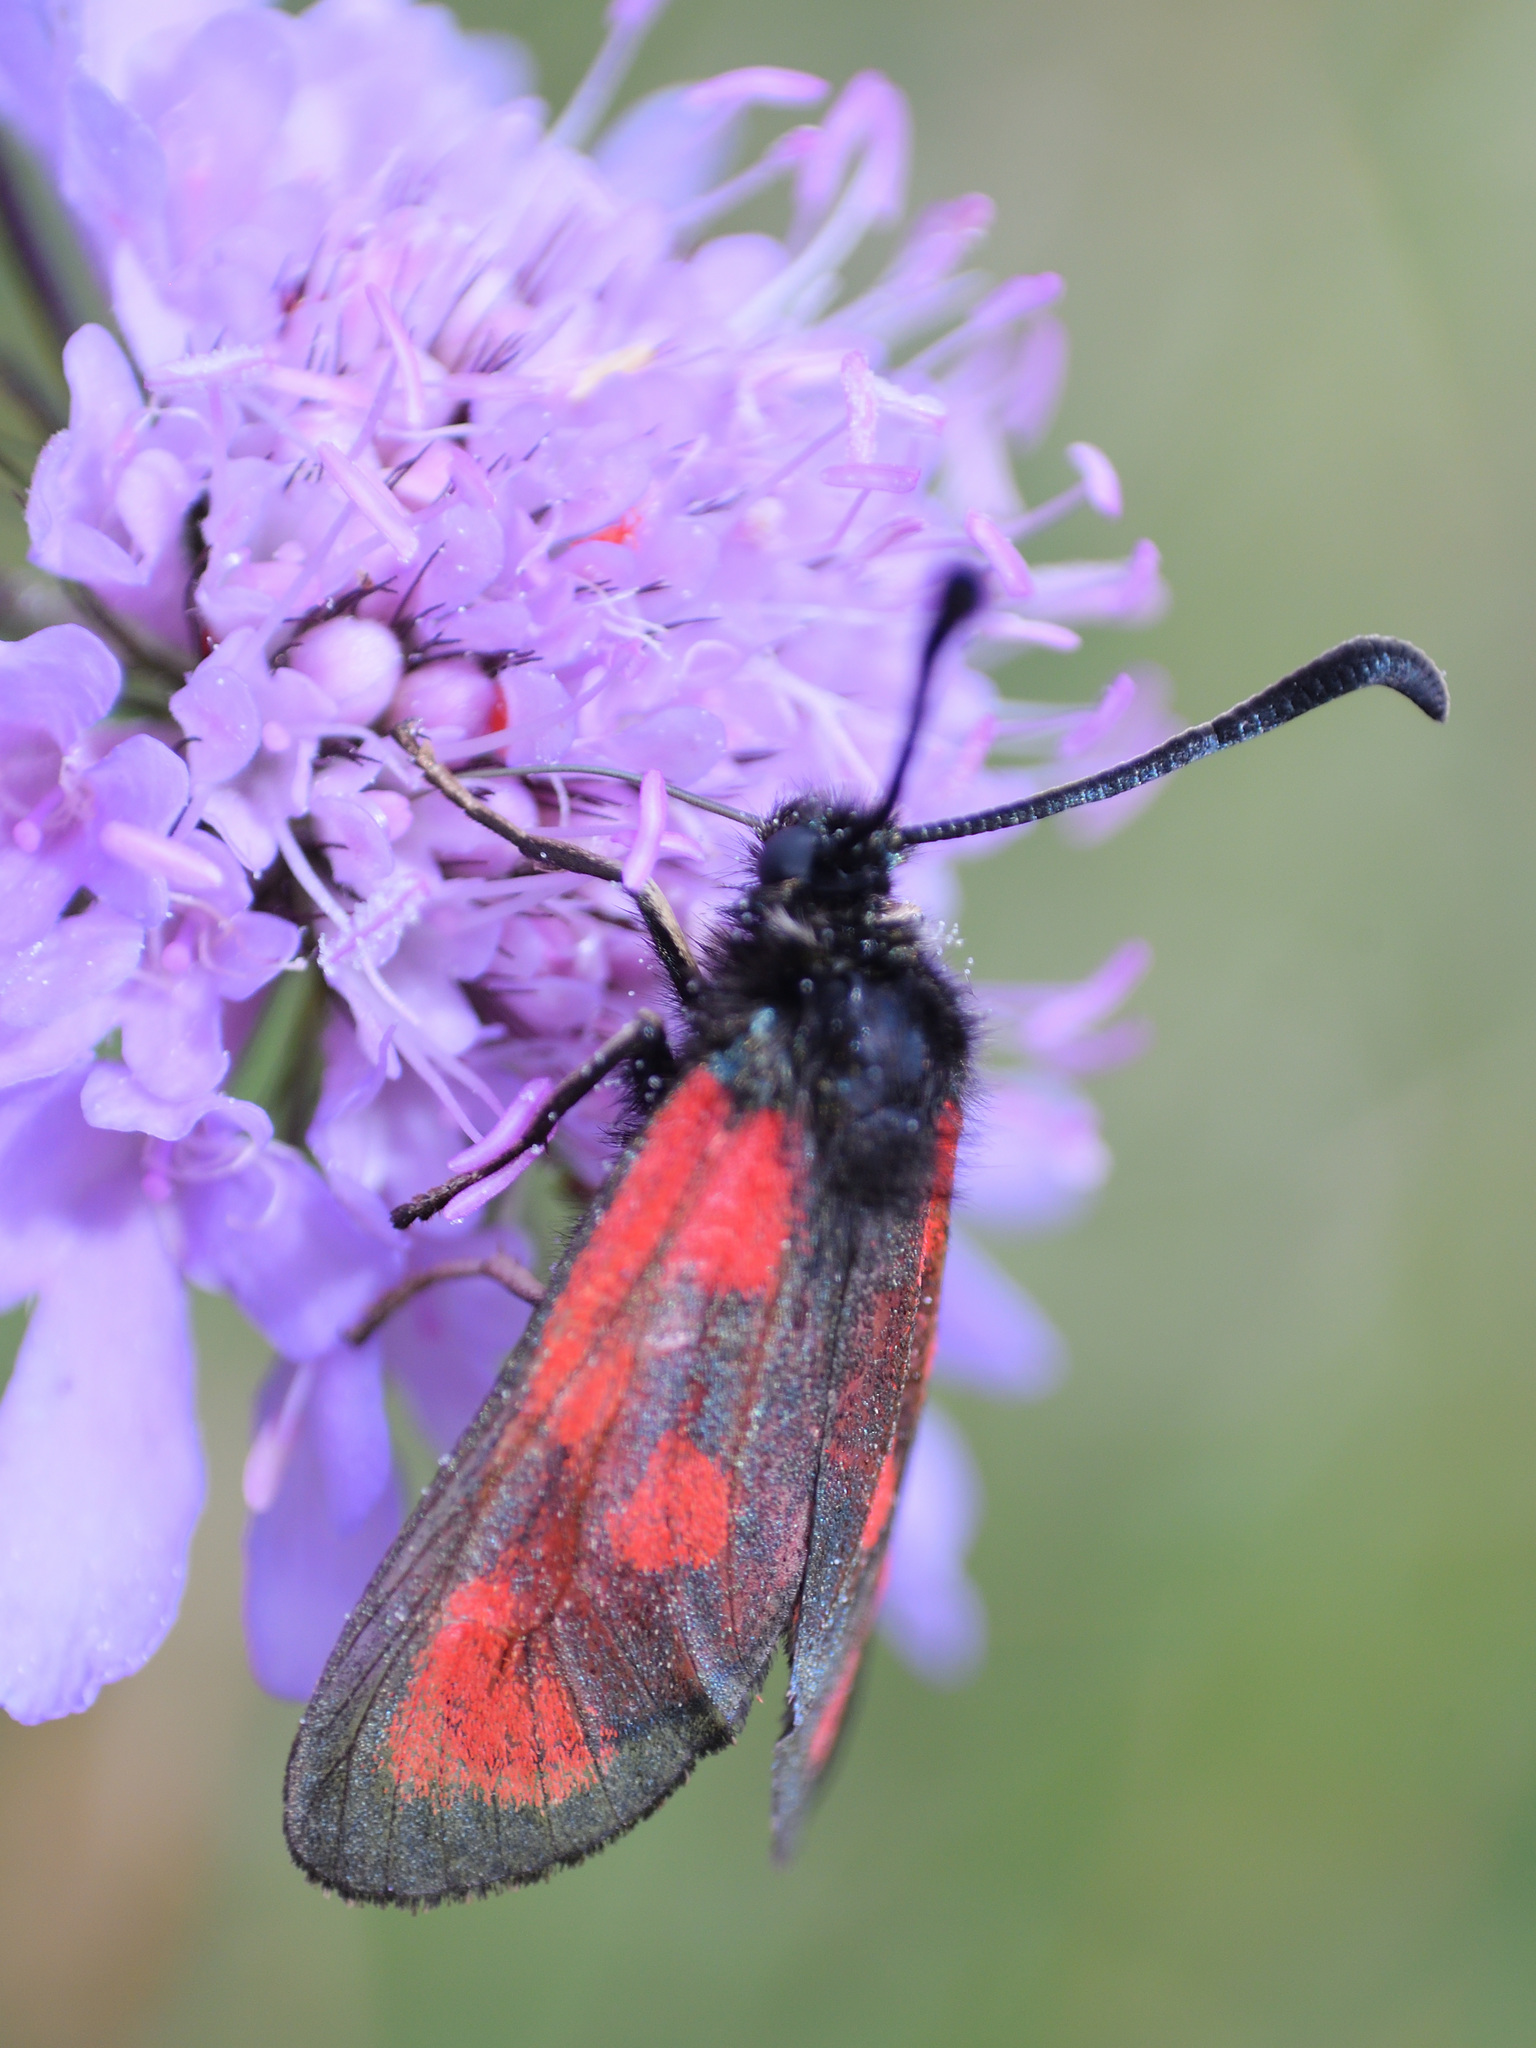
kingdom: Animalia
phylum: Arthropoda
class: Insecta
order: Lepidoptera
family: Zygaenidae
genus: Zygaena
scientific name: Zygaena loti
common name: Slender scotch burnet
